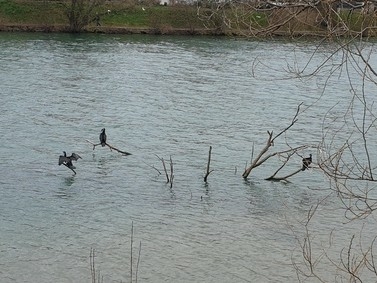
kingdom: Animalia
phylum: Chordata
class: Aves
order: Suliformes
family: Phalacrocoracidae
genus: Phalacrocorax
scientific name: Phalacrocorax carbo
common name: Great cormorant
